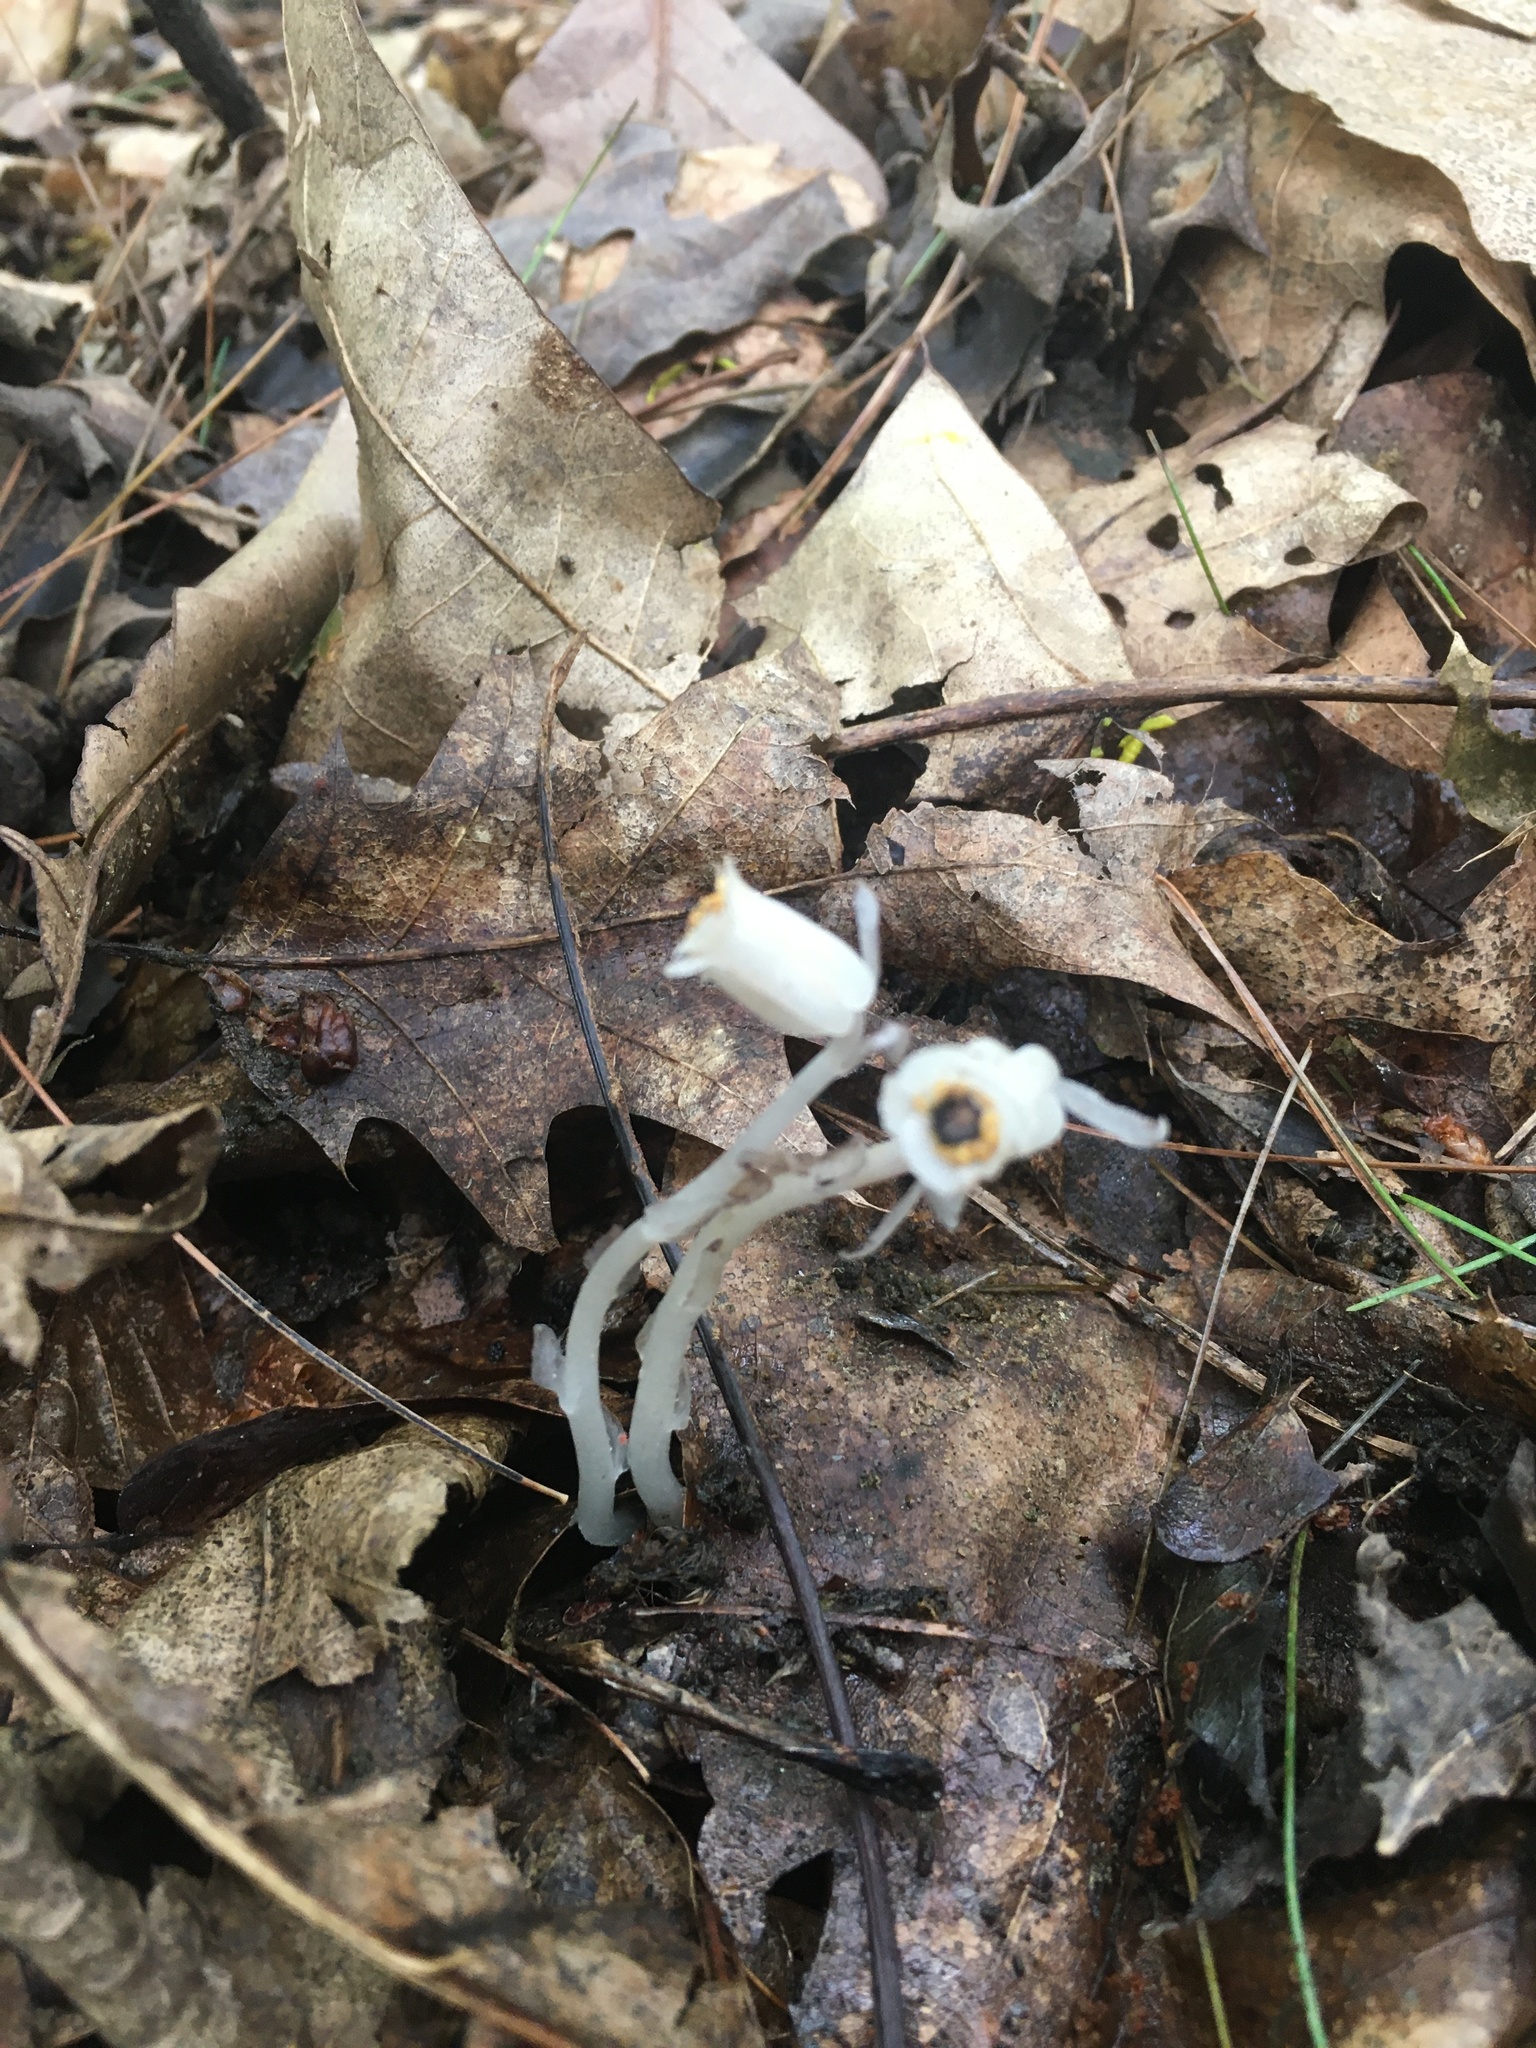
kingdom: Plantae
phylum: Tracheophyta
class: Magnoliopsida
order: Ericales
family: Ericaceae
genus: Monotropa
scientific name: Monotropa uniflora
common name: Convulsion root
